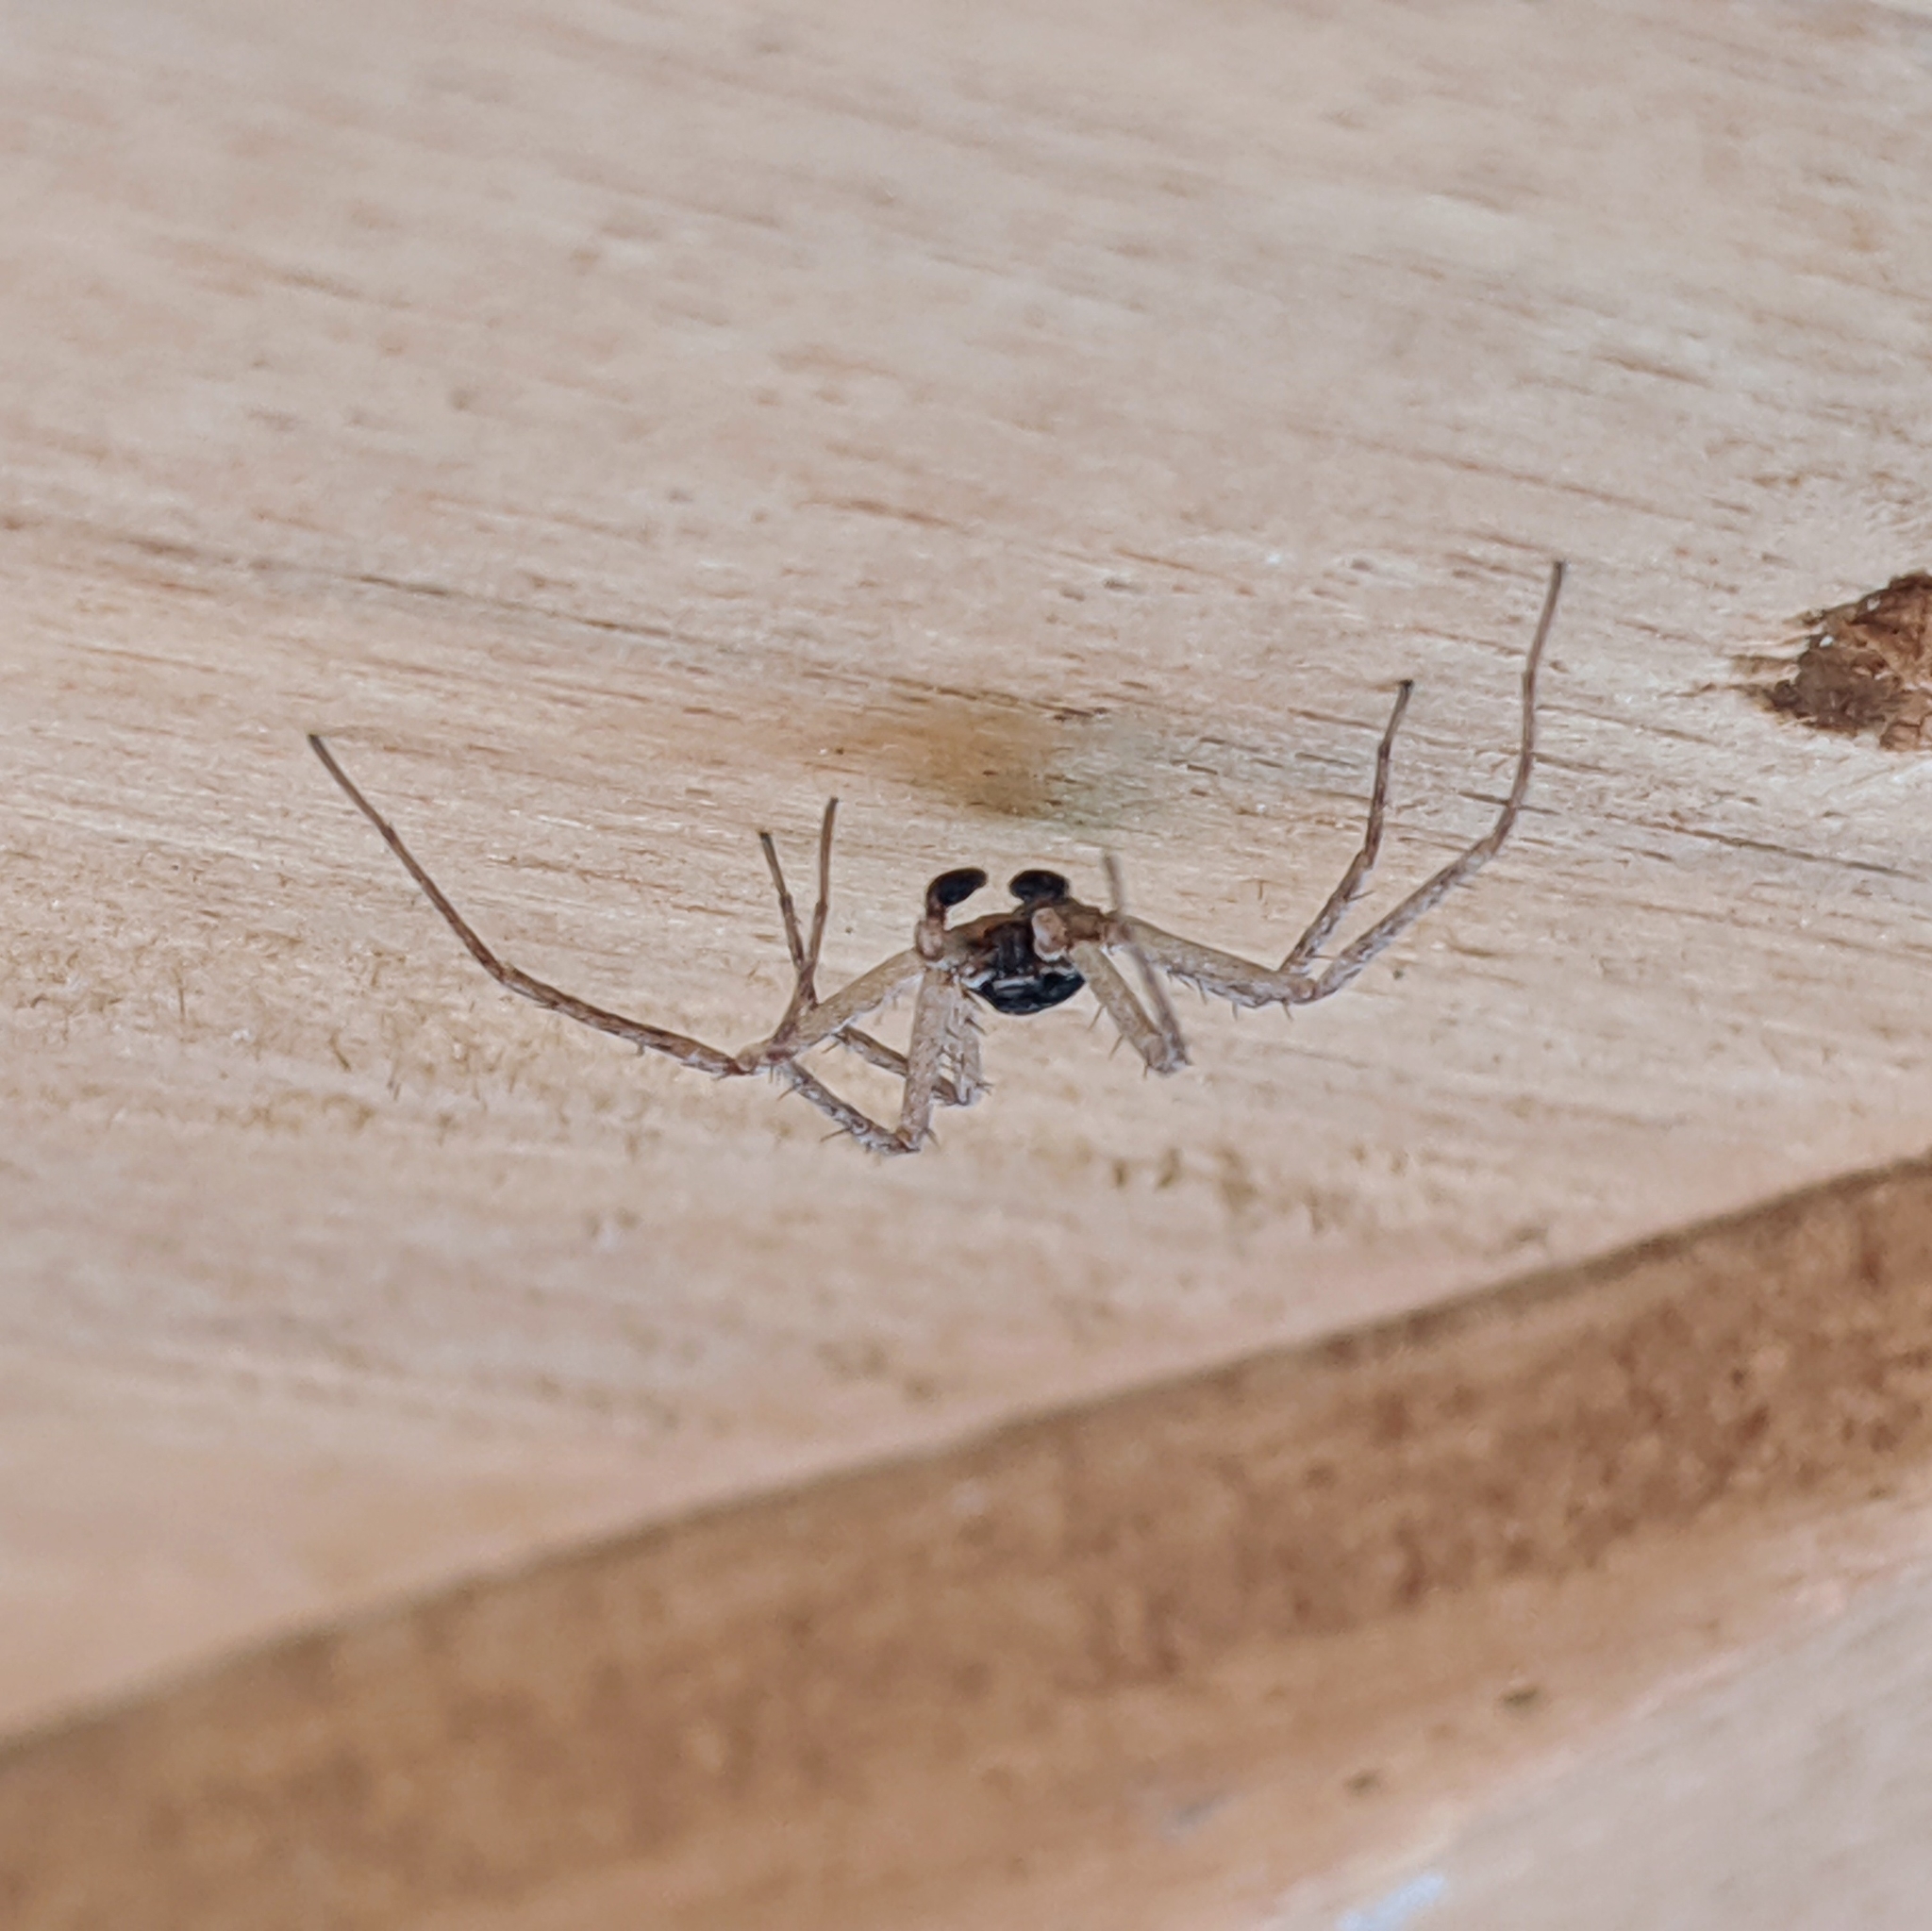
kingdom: Animalia
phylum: Arthropoda
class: Arachnida
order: Araneae
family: Philodromidae
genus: Philodromus
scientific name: Philodromus dispar
